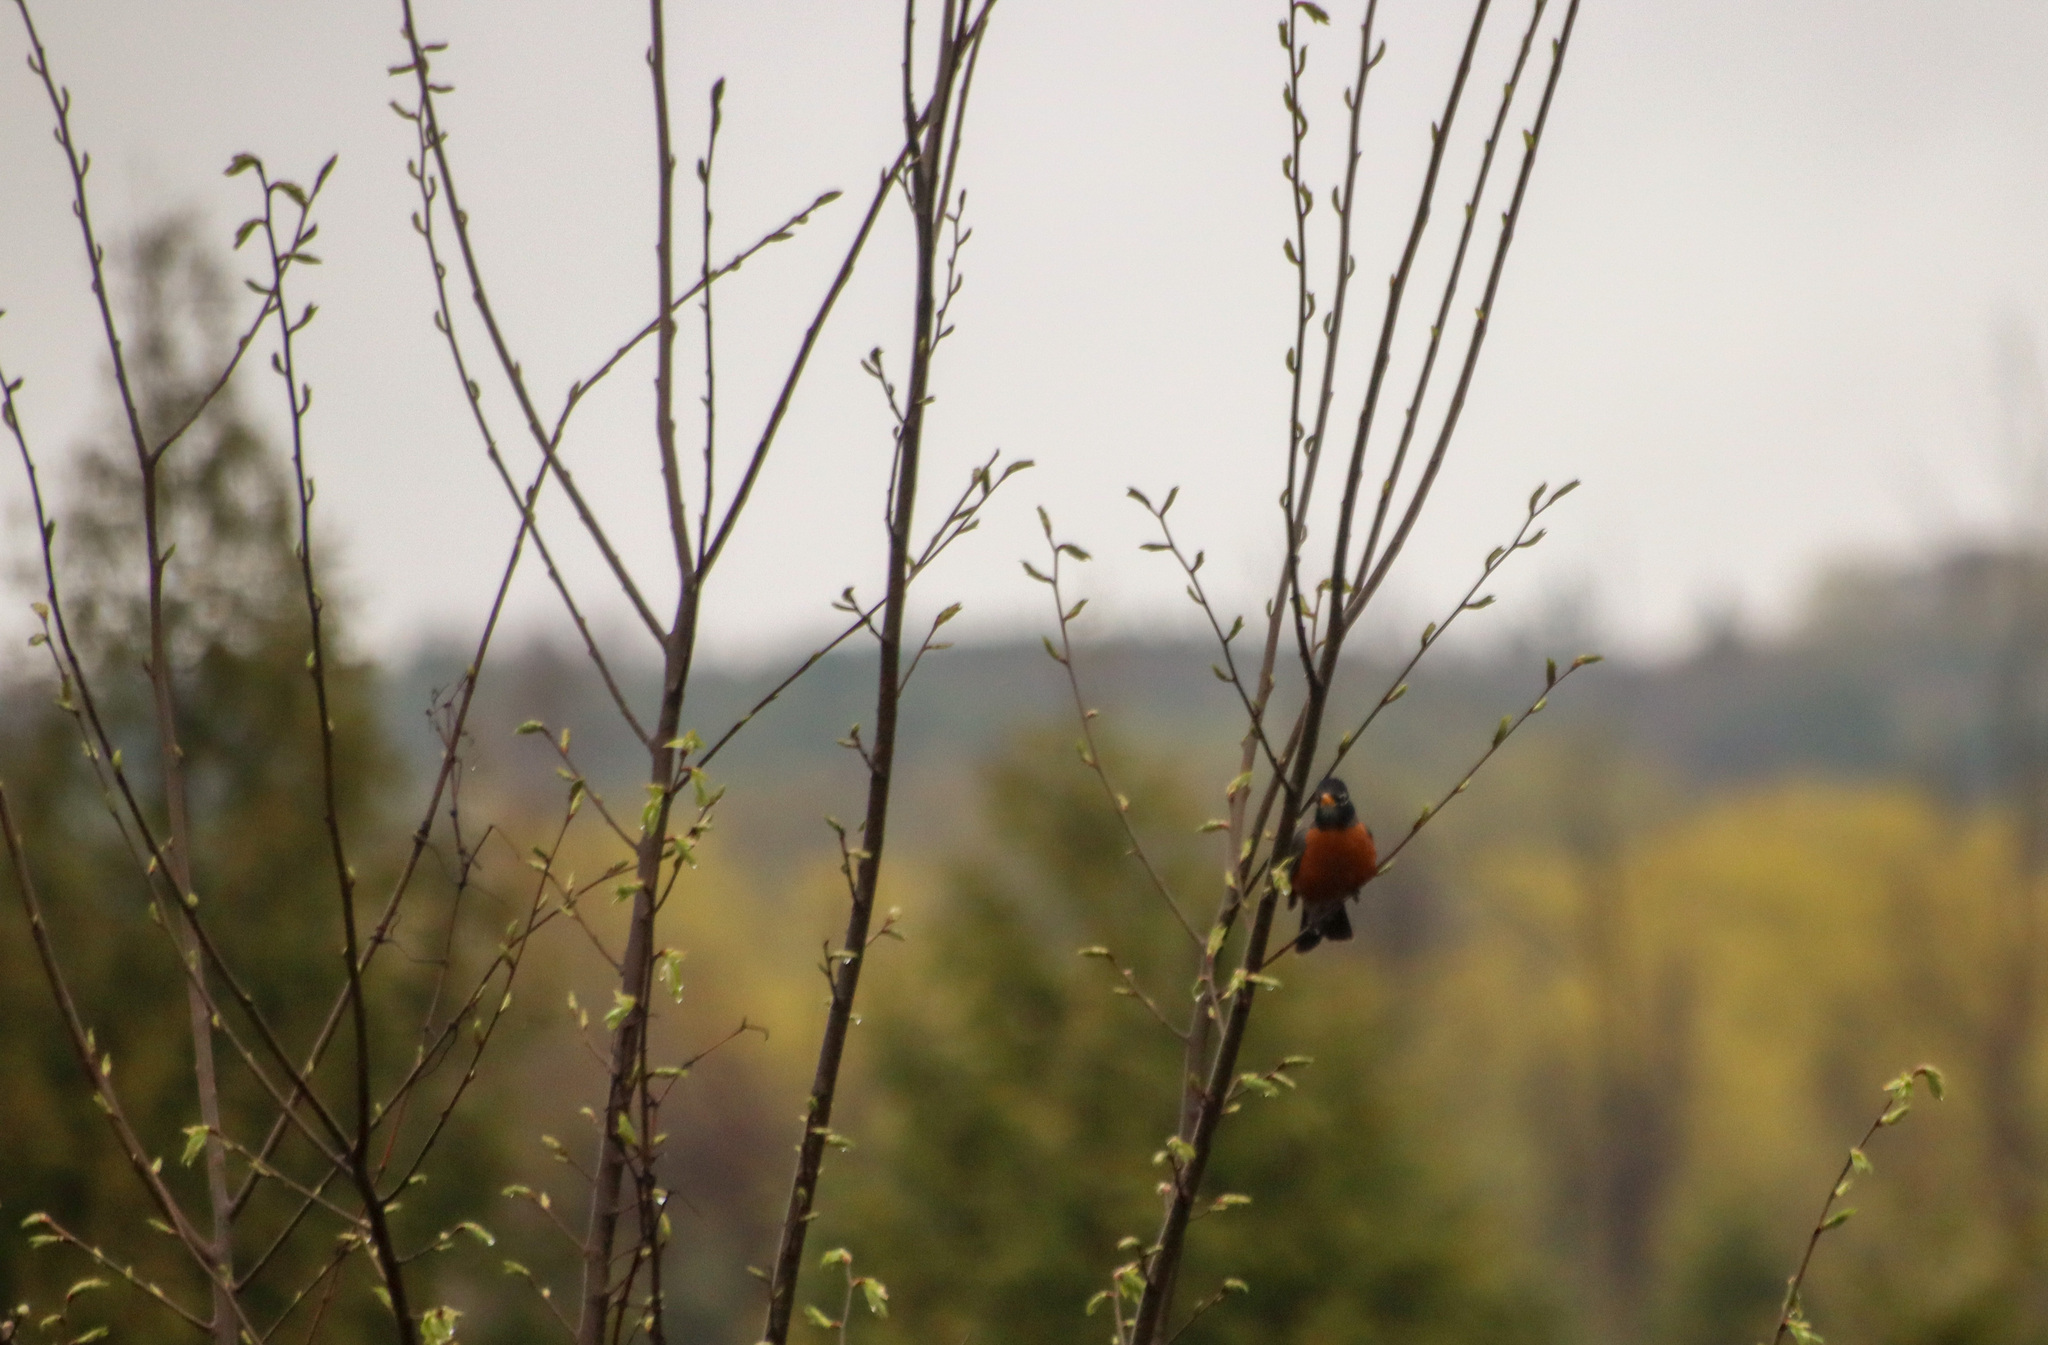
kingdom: Animalia
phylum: Chordata
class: Aves
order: Passeriformes
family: Turdidae
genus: Turdus
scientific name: Turdus migratorius
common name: American robin
